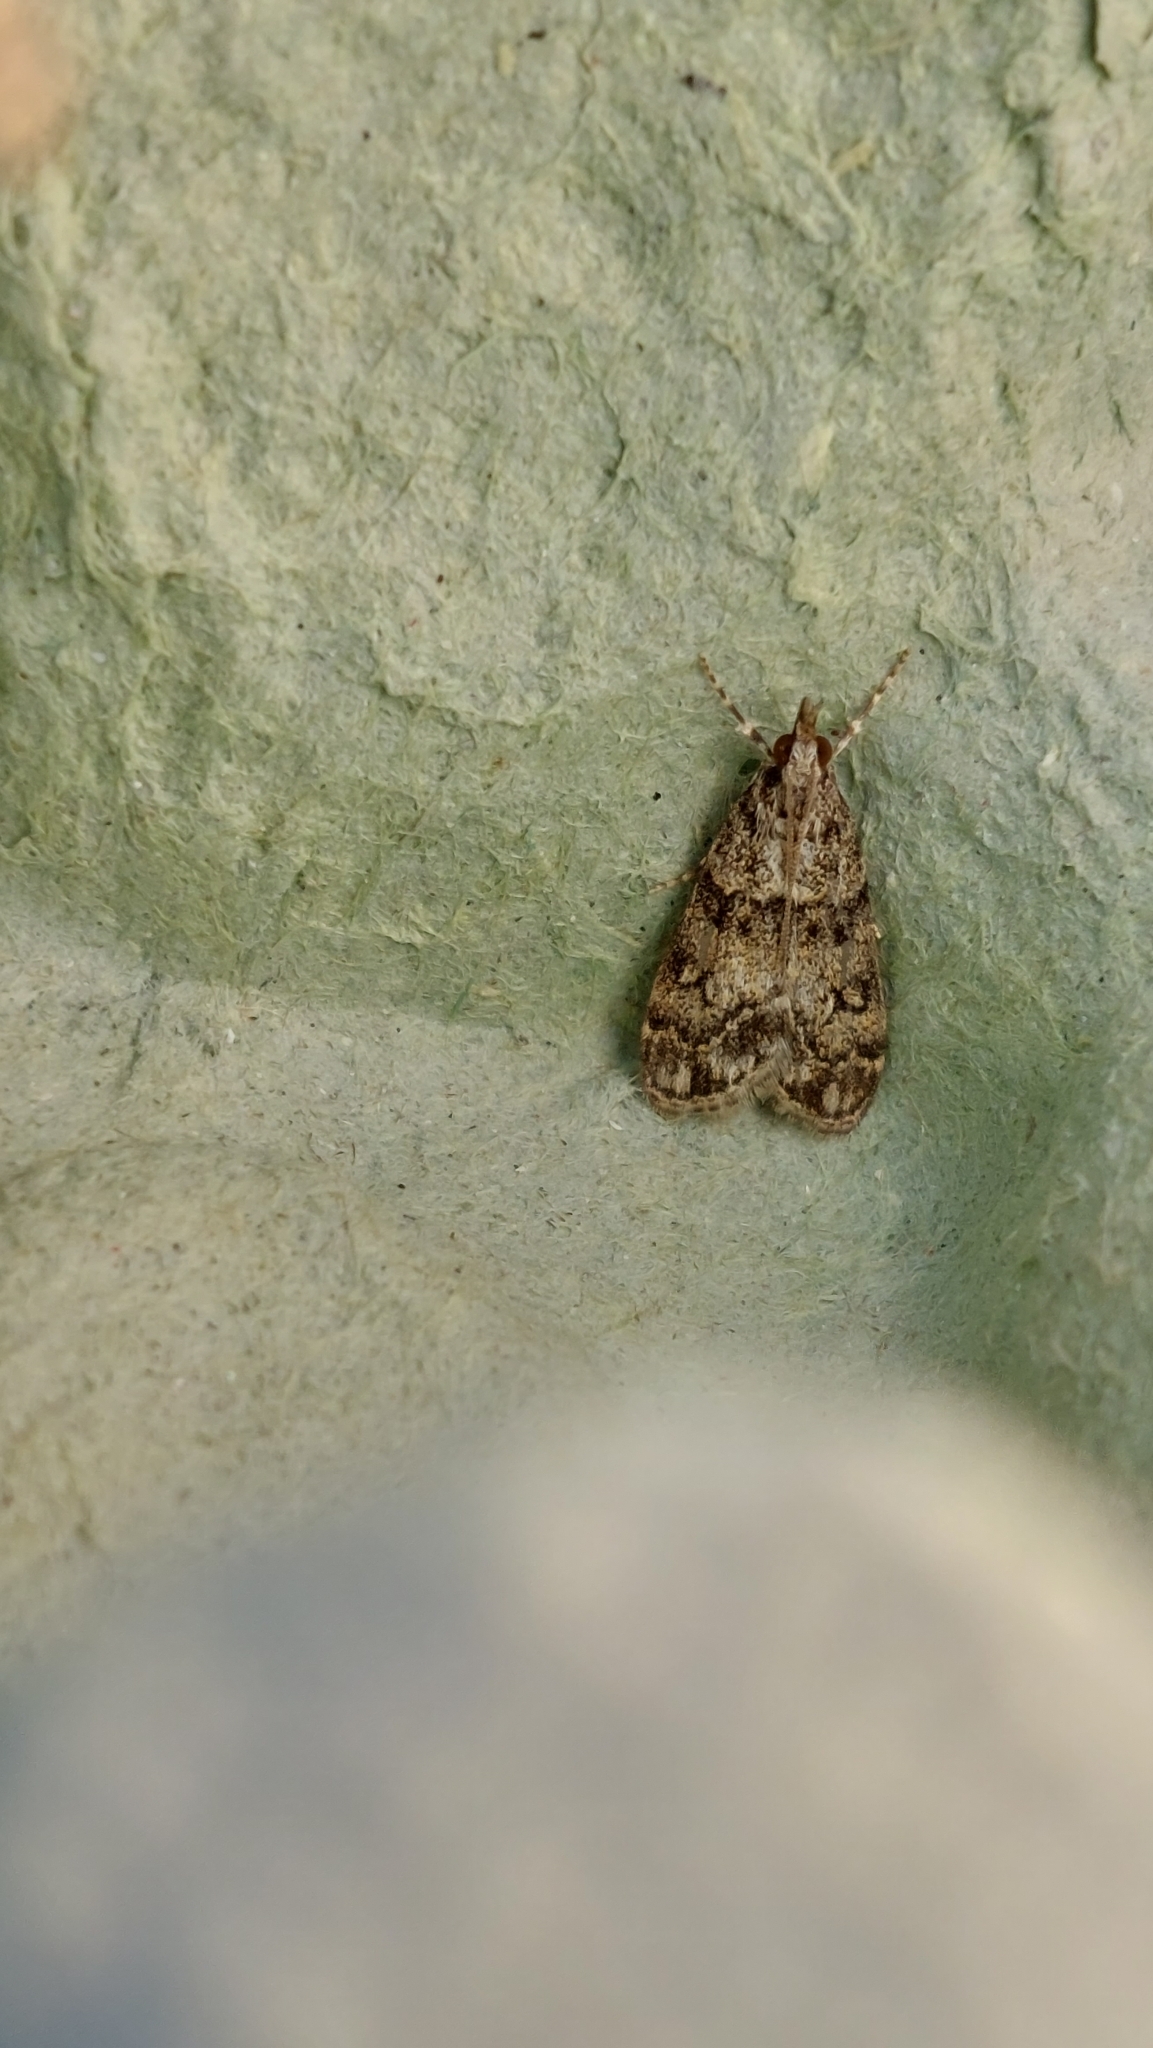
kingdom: Animalia
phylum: Arthropoda
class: Insecta
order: Lepidoptera
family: Crambidae
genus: Eudonia
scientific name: Eudonia lacustrata
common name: Little grey
